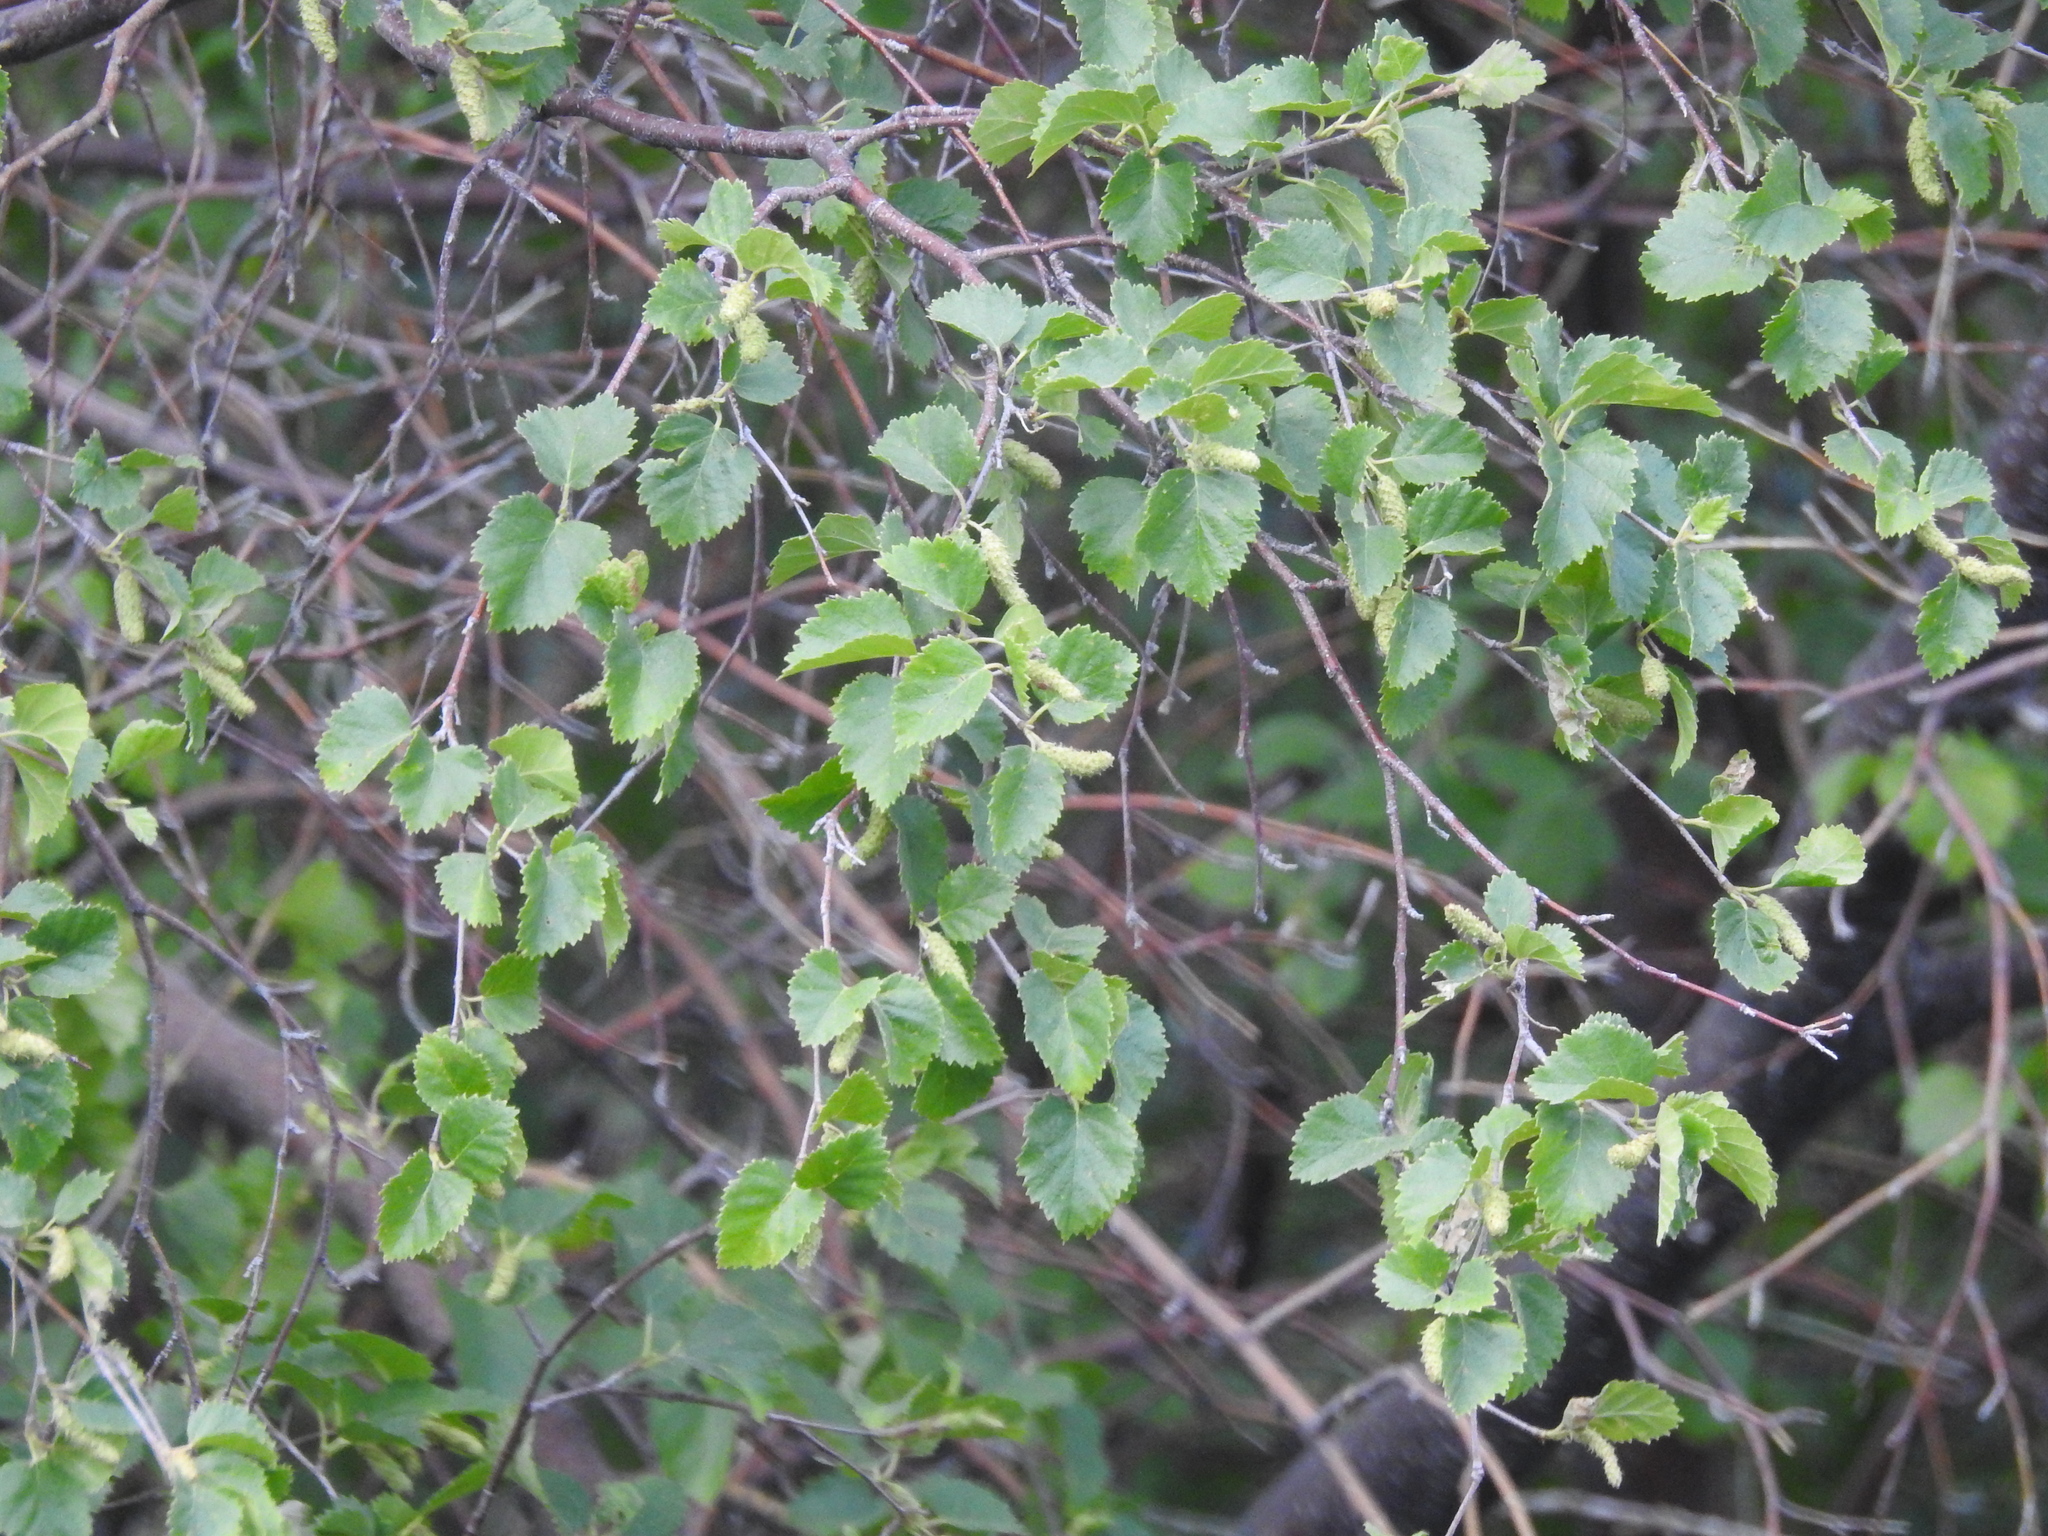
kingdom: Plantae
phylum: Tracheophyta
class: Magnoliopsida
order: Fagales
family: Betulaceae
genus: Betula
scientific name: Betula occidentalis
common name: River birch
